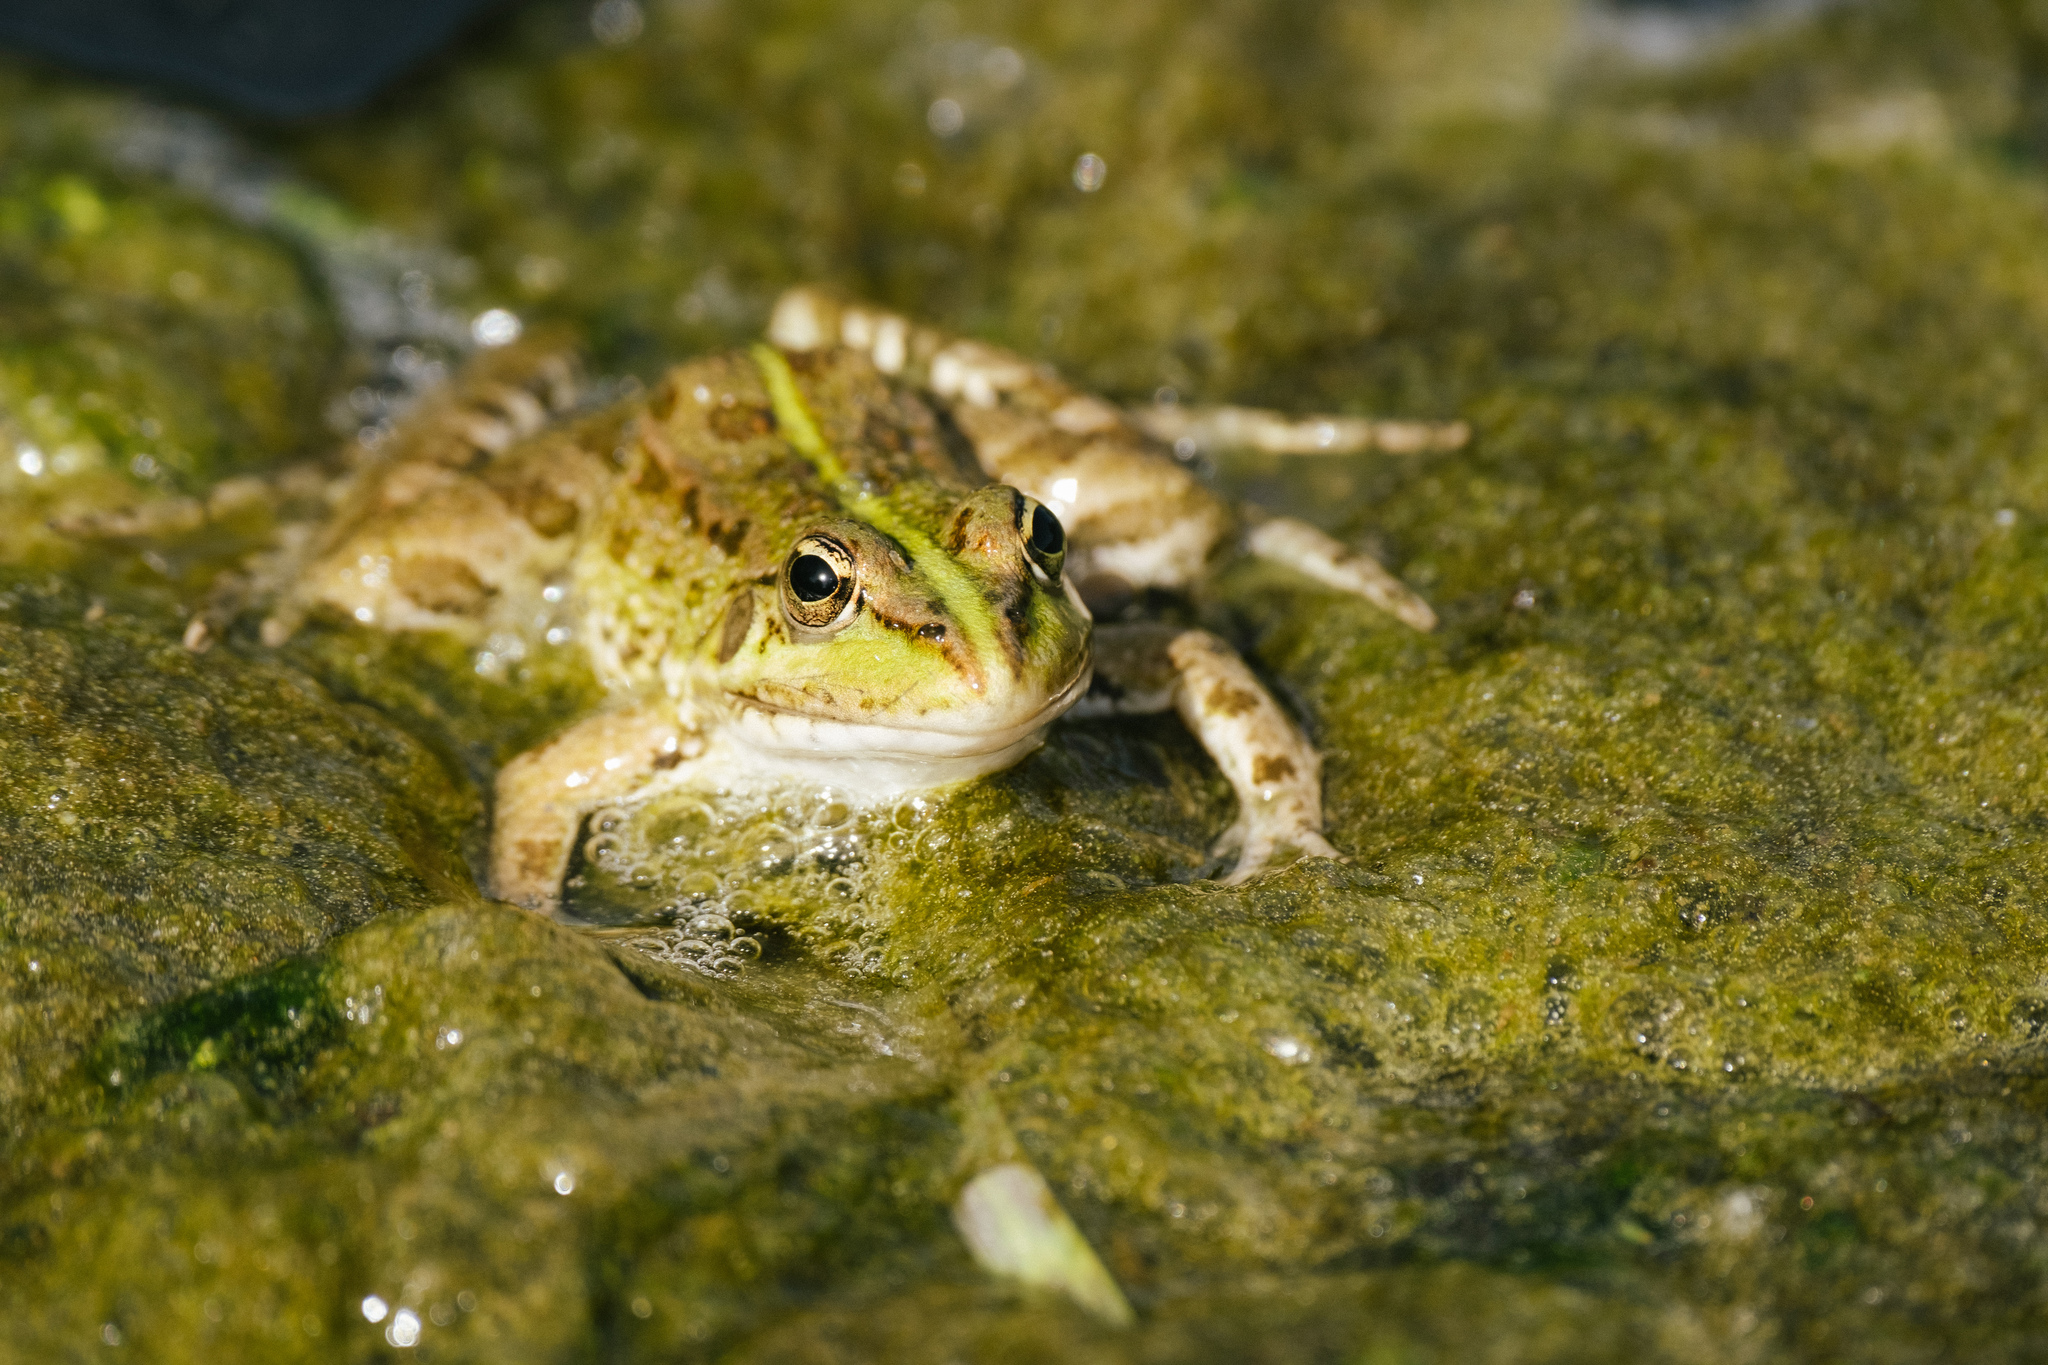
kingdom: Animalia
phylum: Chordata
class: Amphibia
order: Anura
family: Ranidae
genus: Pelophylax
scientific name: Pelophylax perezi
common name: Perez's frog
